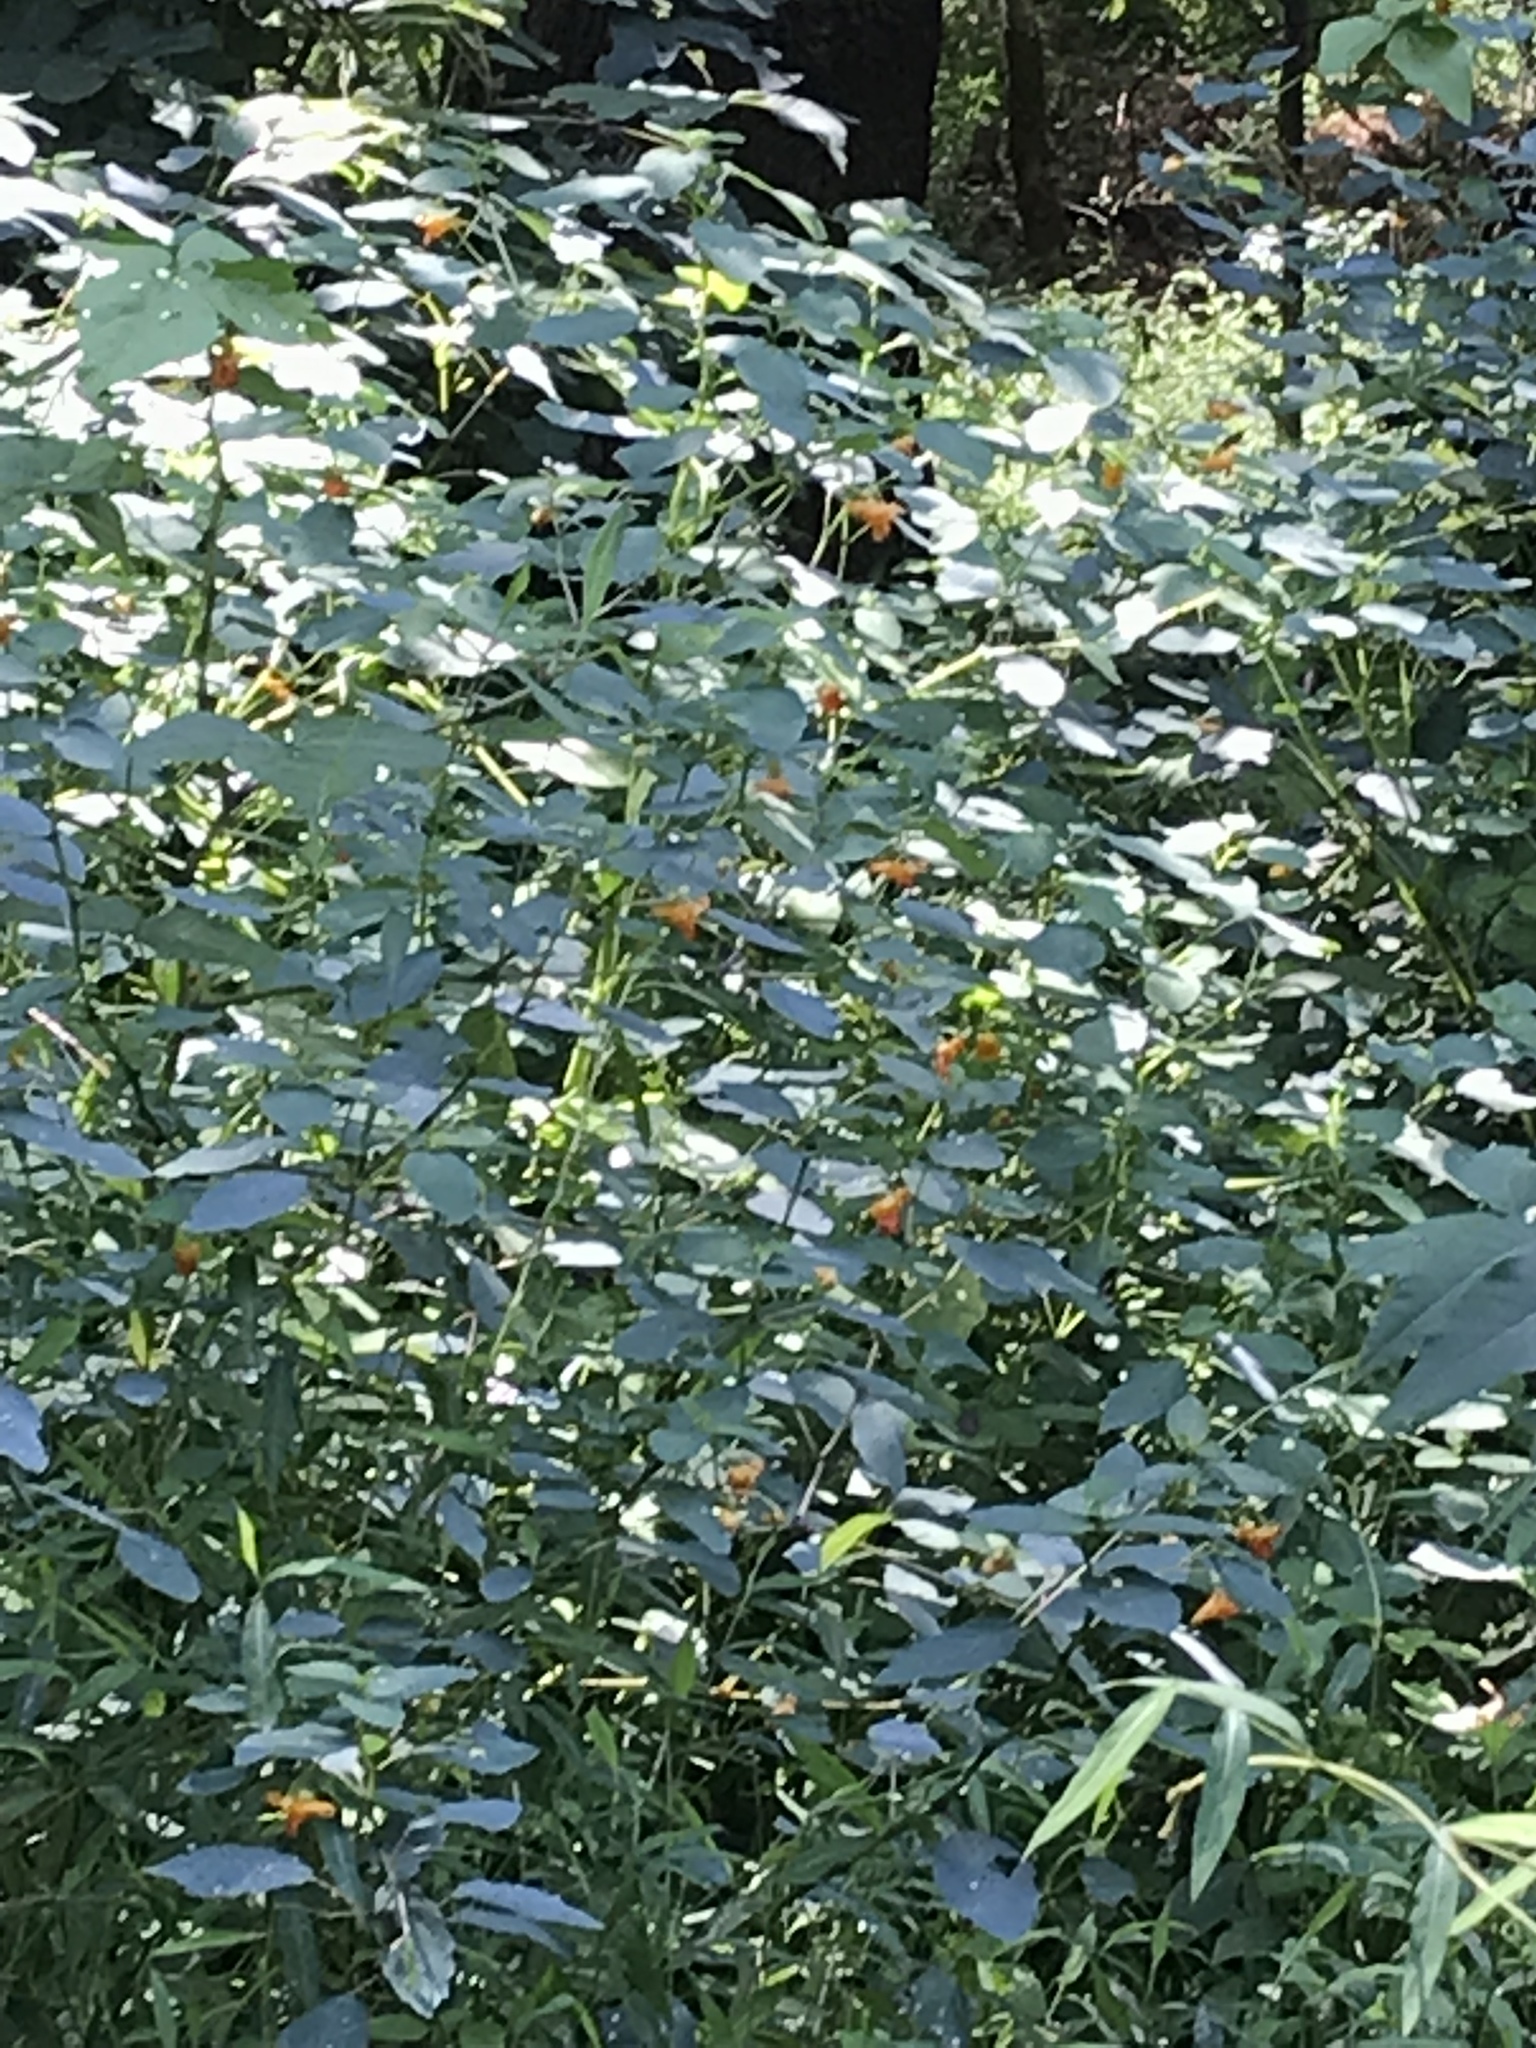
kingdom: Plantae
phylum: Tracheophyta
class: Magnoliopsida
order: Ericales
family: Balsaminaceae
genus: Impatiens
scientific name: Impatiens capensis
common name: Orange balsam
